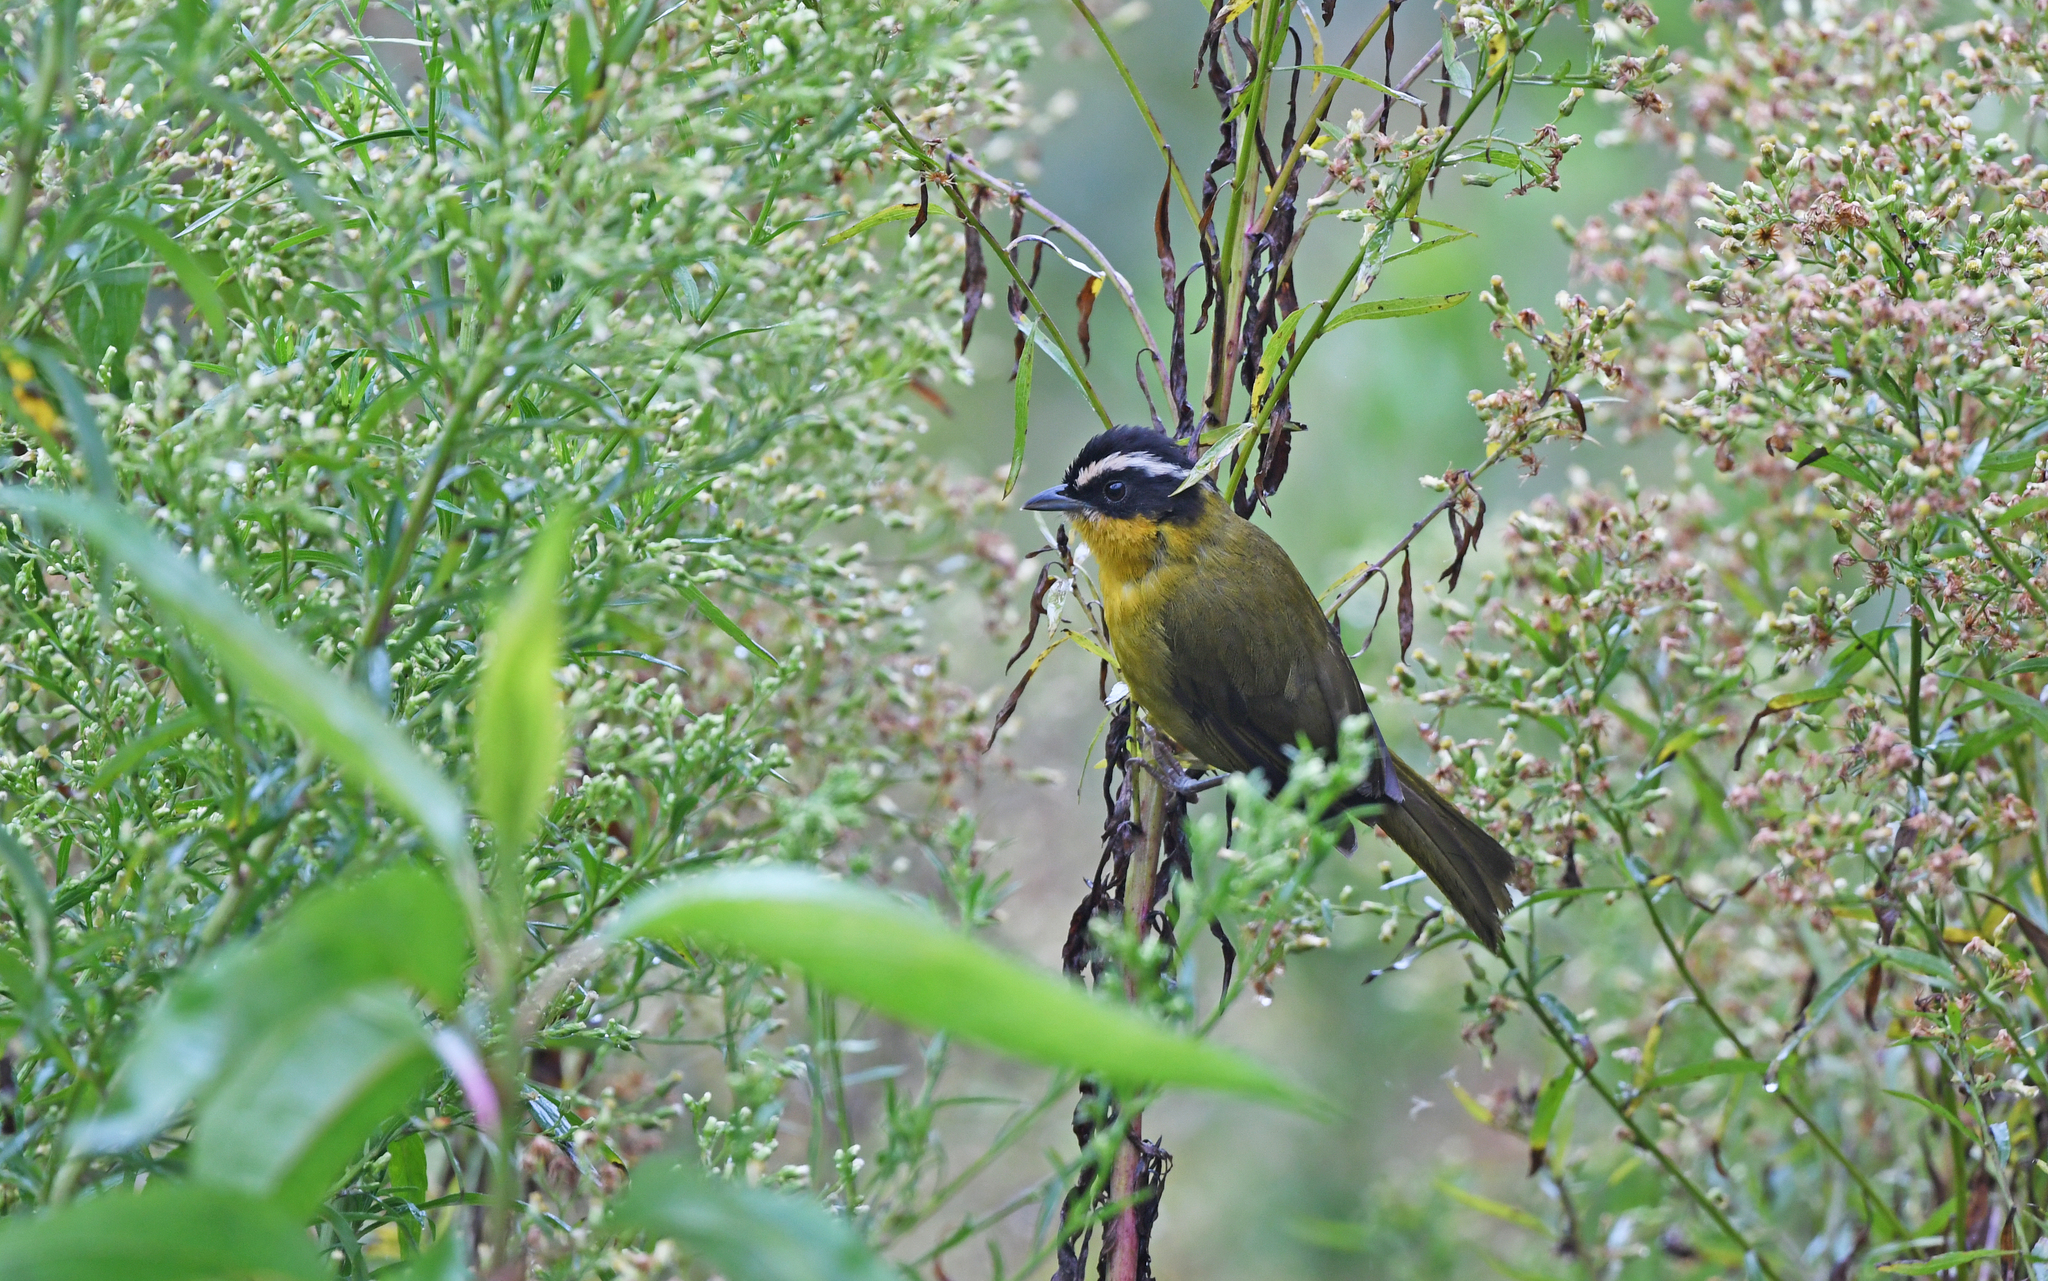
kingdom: Animalia
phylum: Chordata
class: Aves
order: Passeriformes
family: Thraupidae
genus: Kleinothraupis
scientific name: Kleinothraupis atropileus
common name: Black-capped hemispingus
